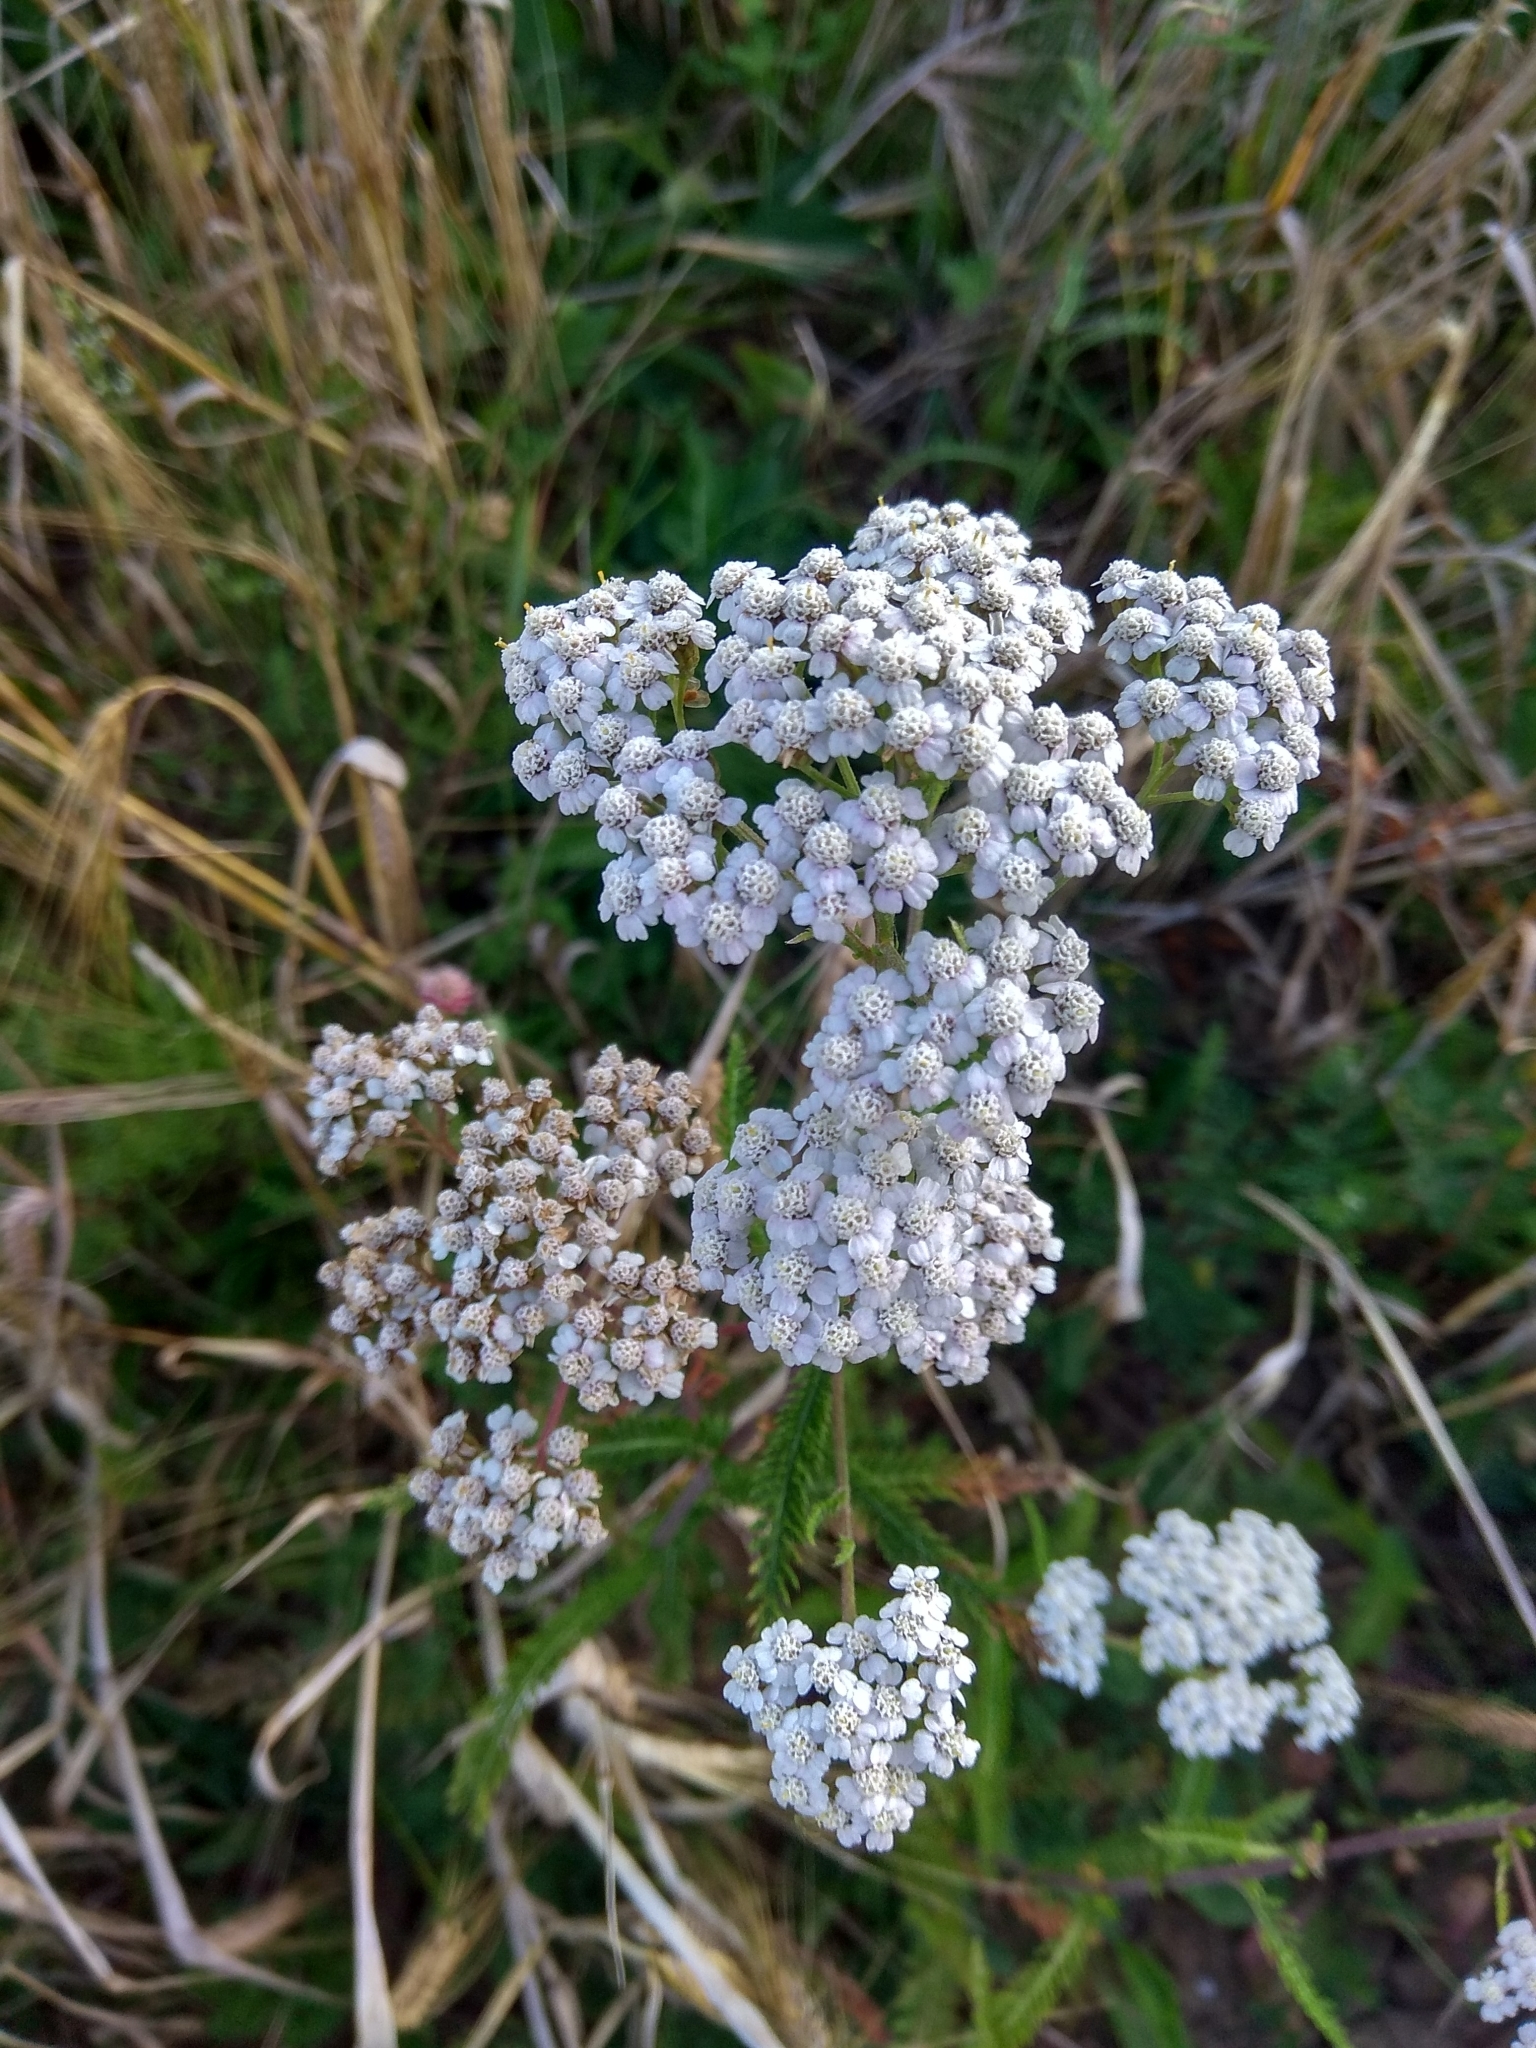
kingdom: Plantae
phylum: Tracheophyta
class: Magnoliopsida
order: Asterales
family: Asteraceae
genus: Achillea
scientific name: Achillea millefolium
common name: Yarrow
